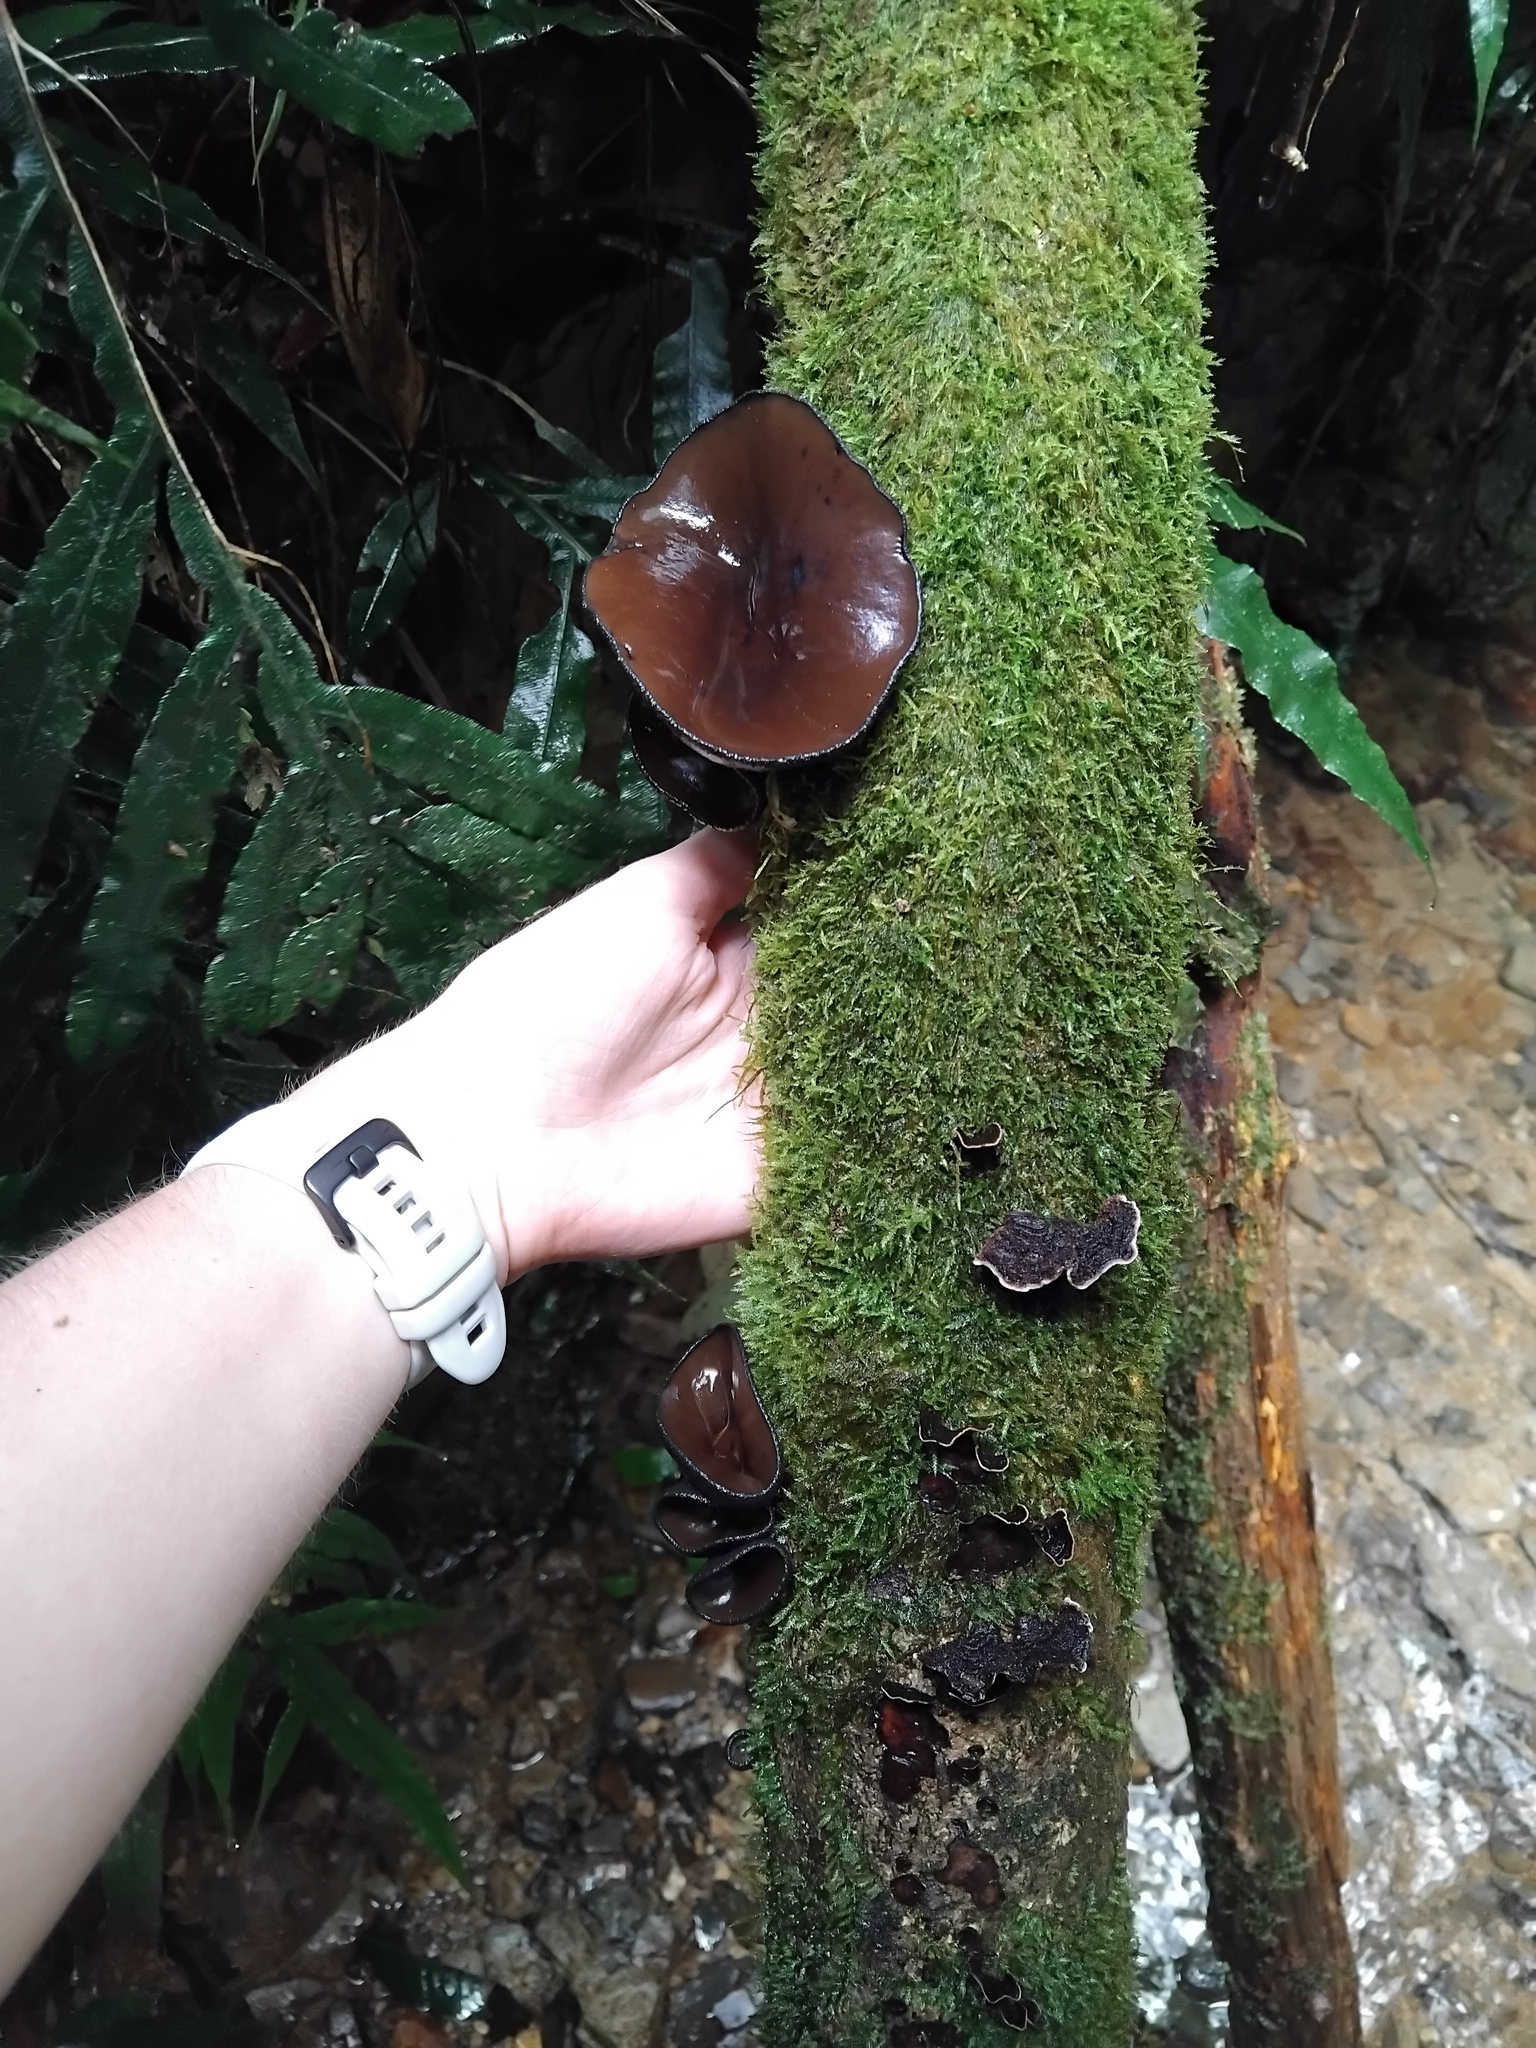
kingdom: Fungi
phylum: Ascomycota
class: Pezizomycetes
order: Pezizales
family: Sarcosomataceae
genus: Plectania
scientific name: Plectania campylospora
